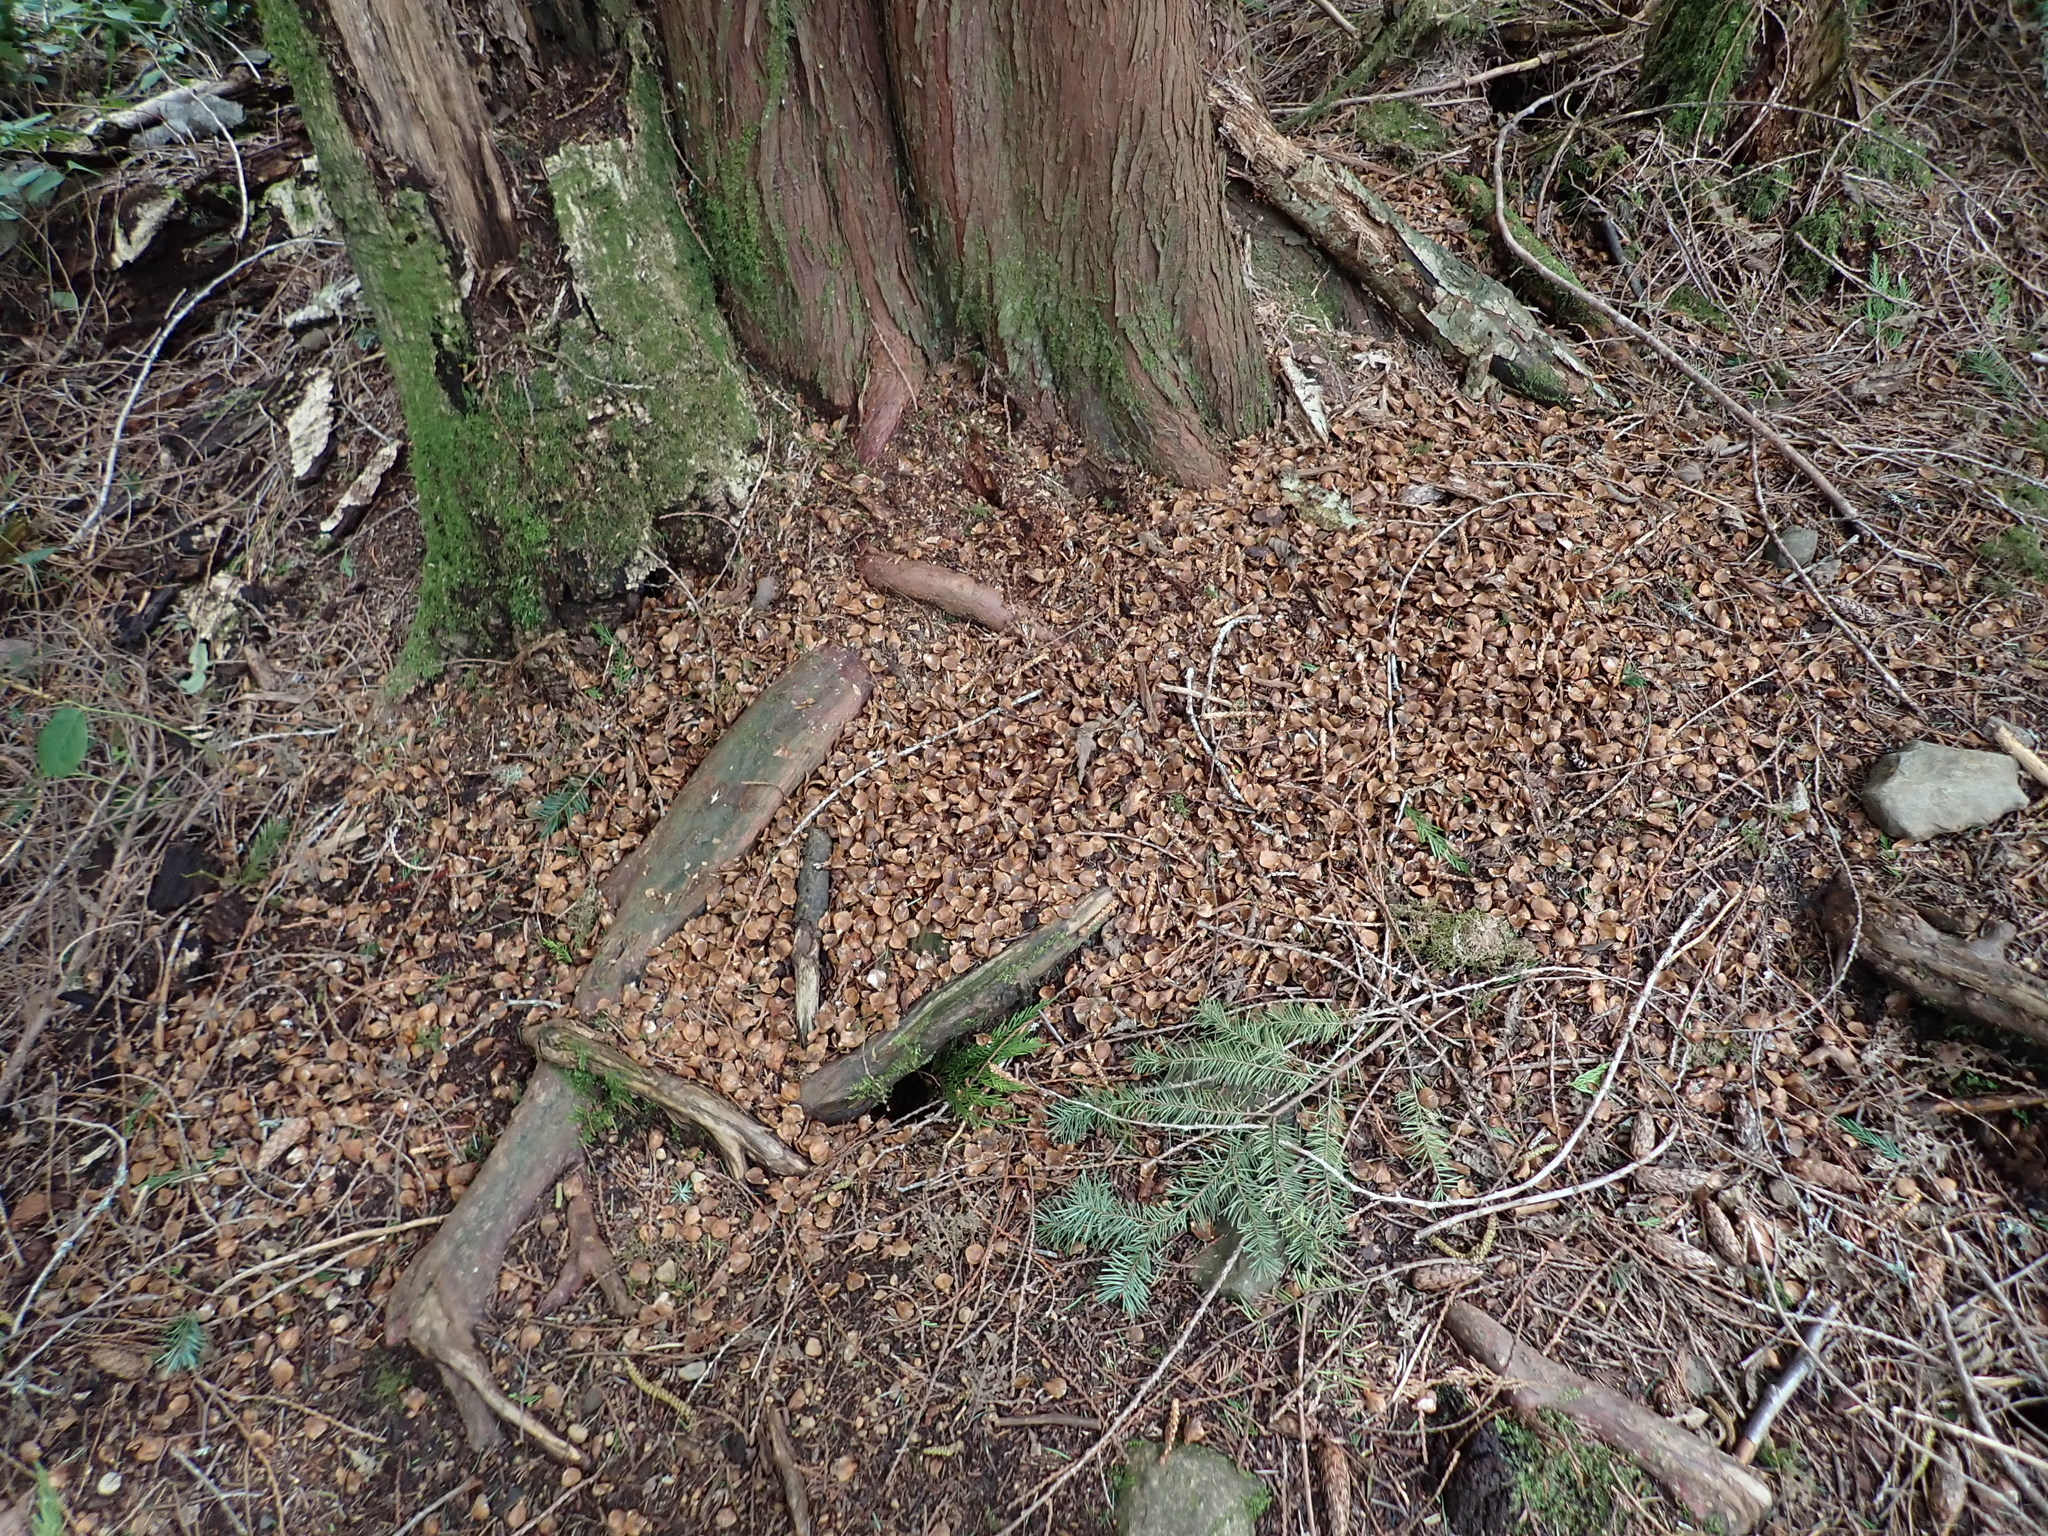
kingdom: Animalia
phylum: Chordata
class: Mammalia
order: Rodentia
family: Sciuridae
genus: Tamiasciurus
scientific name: Tamiasciurus hudsonicus
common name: Red squirrel
